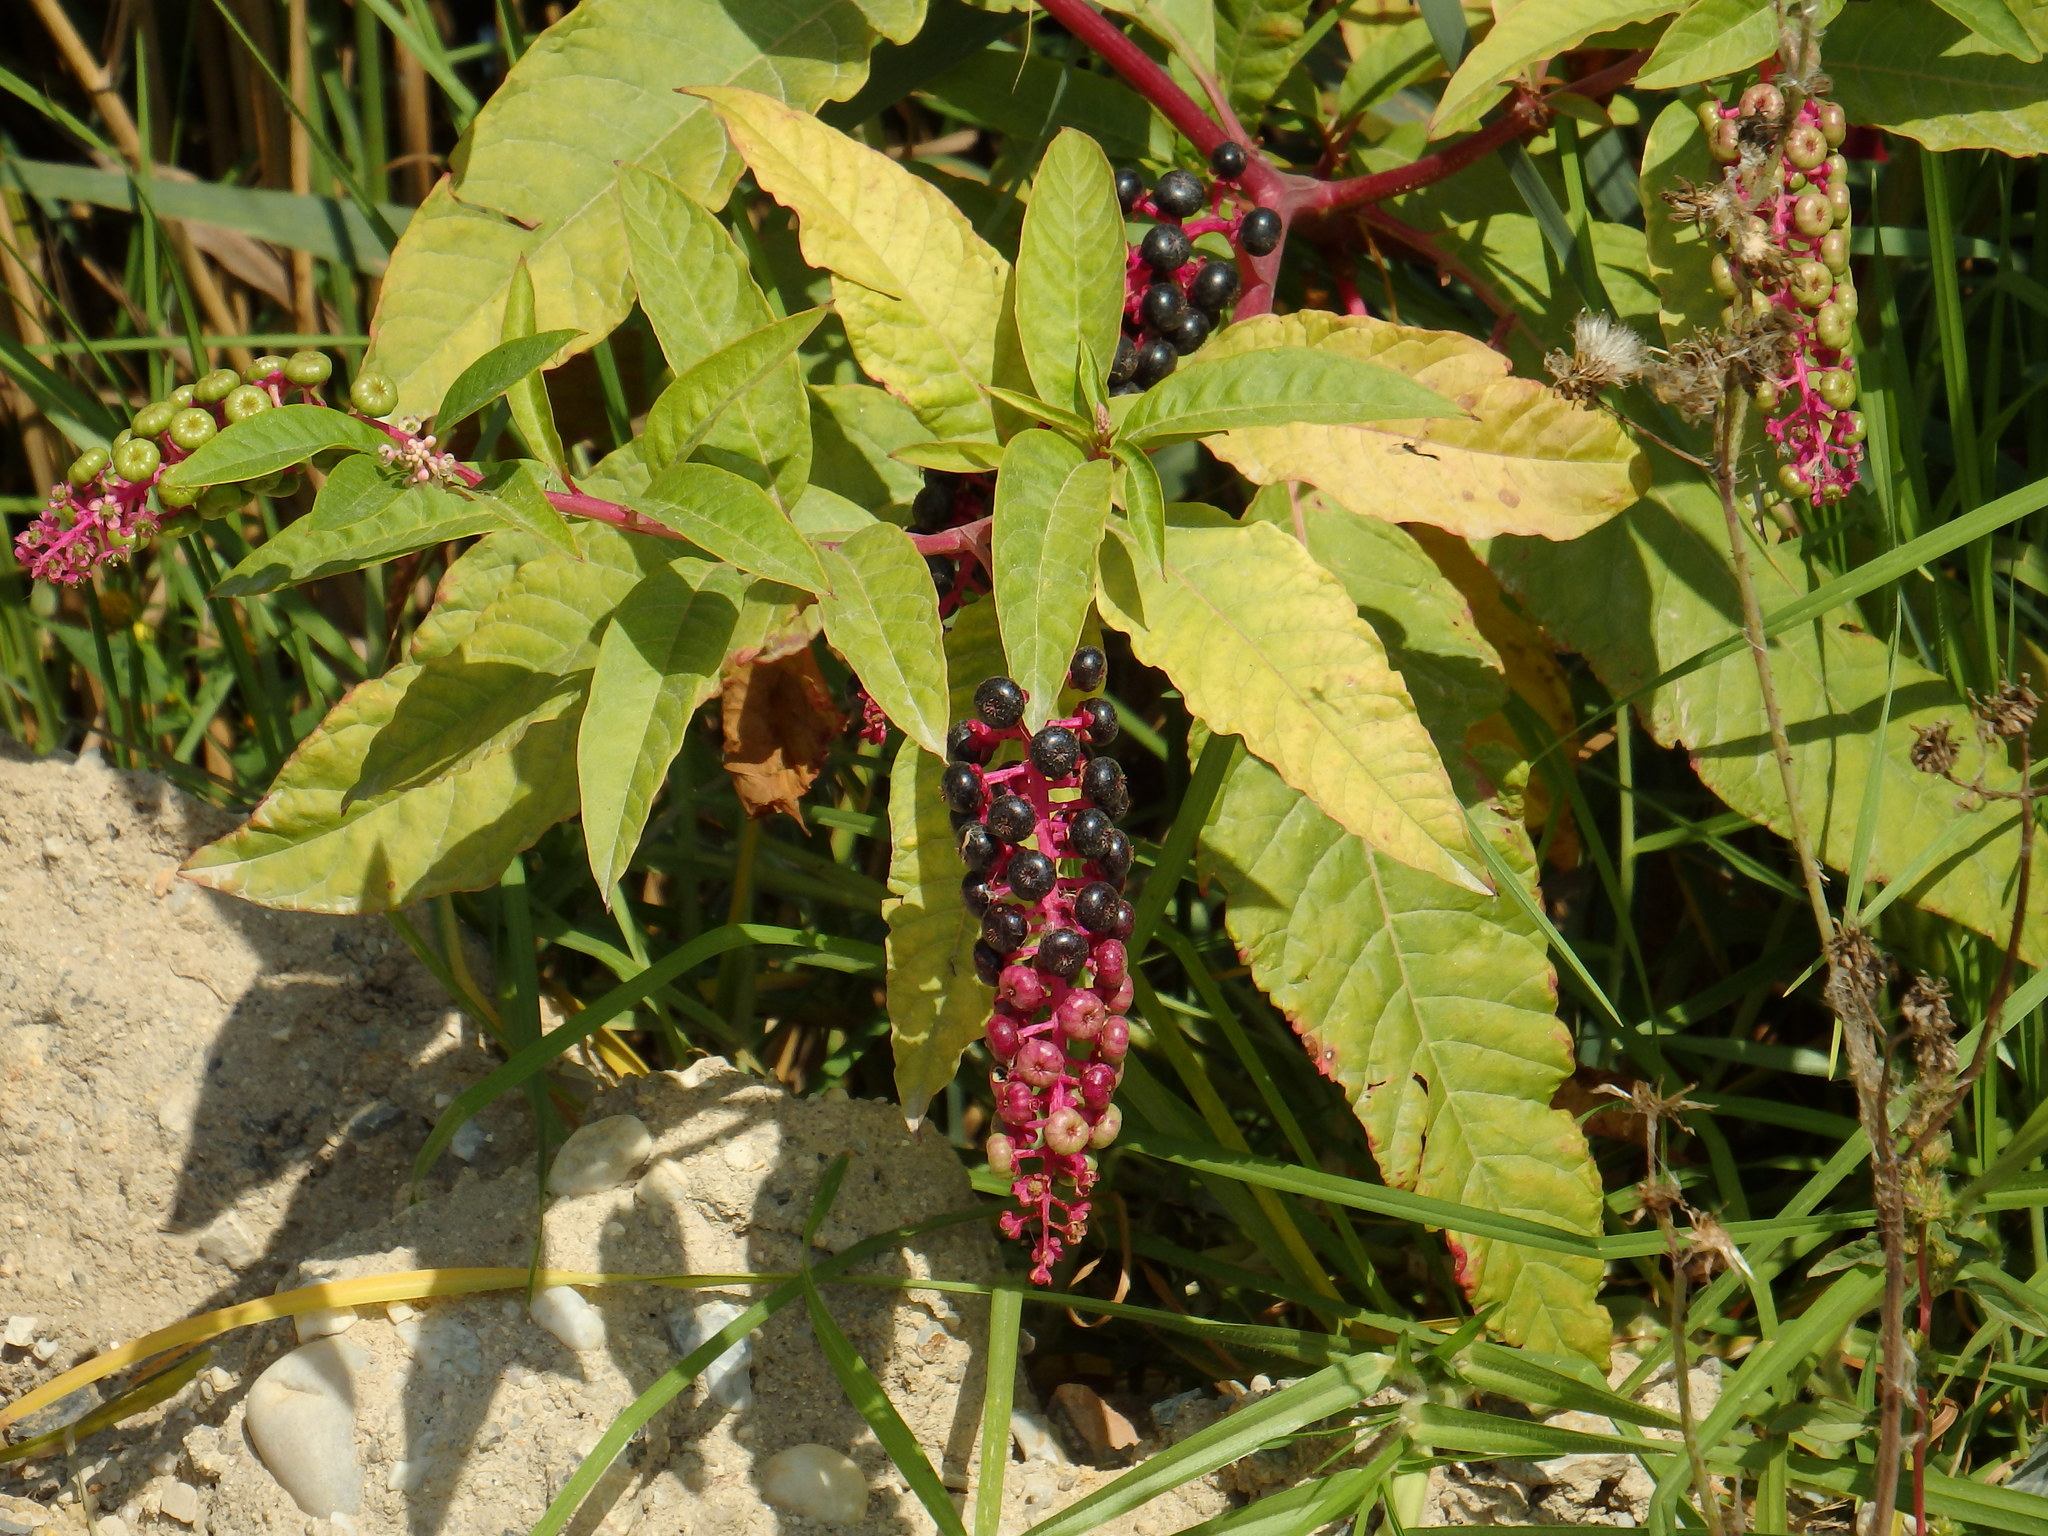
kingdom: Plantae
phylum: Tracheophyta
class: Magnoliopsida
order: Caryophyllales
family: Phytolaccaceae
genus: Phytolacca
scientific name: Phytolacca americana
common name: American pokeweed
